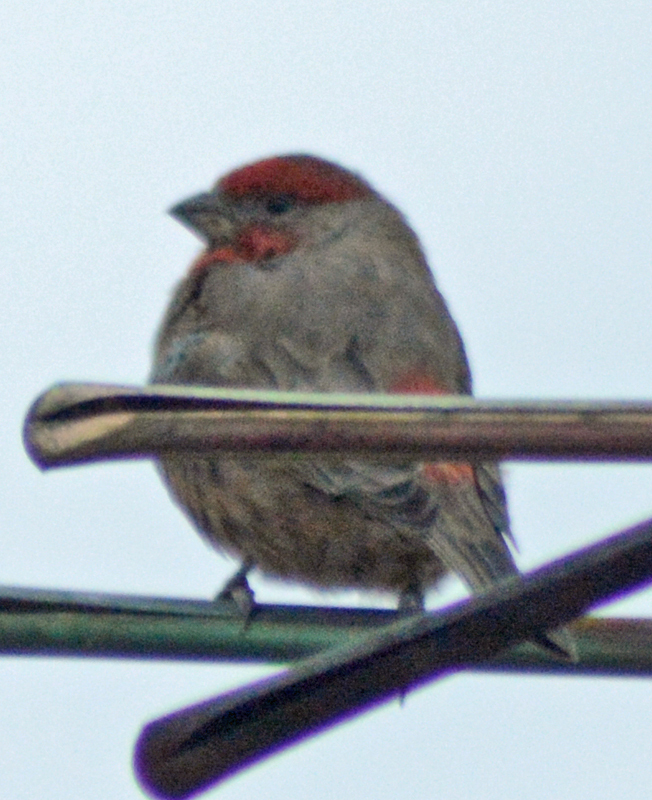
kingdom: Animalia
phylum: Chordata
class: Aves
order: Passeriformes
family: Fringillidae
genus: Haemorhous
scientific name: Haemorhous mexicanus
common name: House finch
